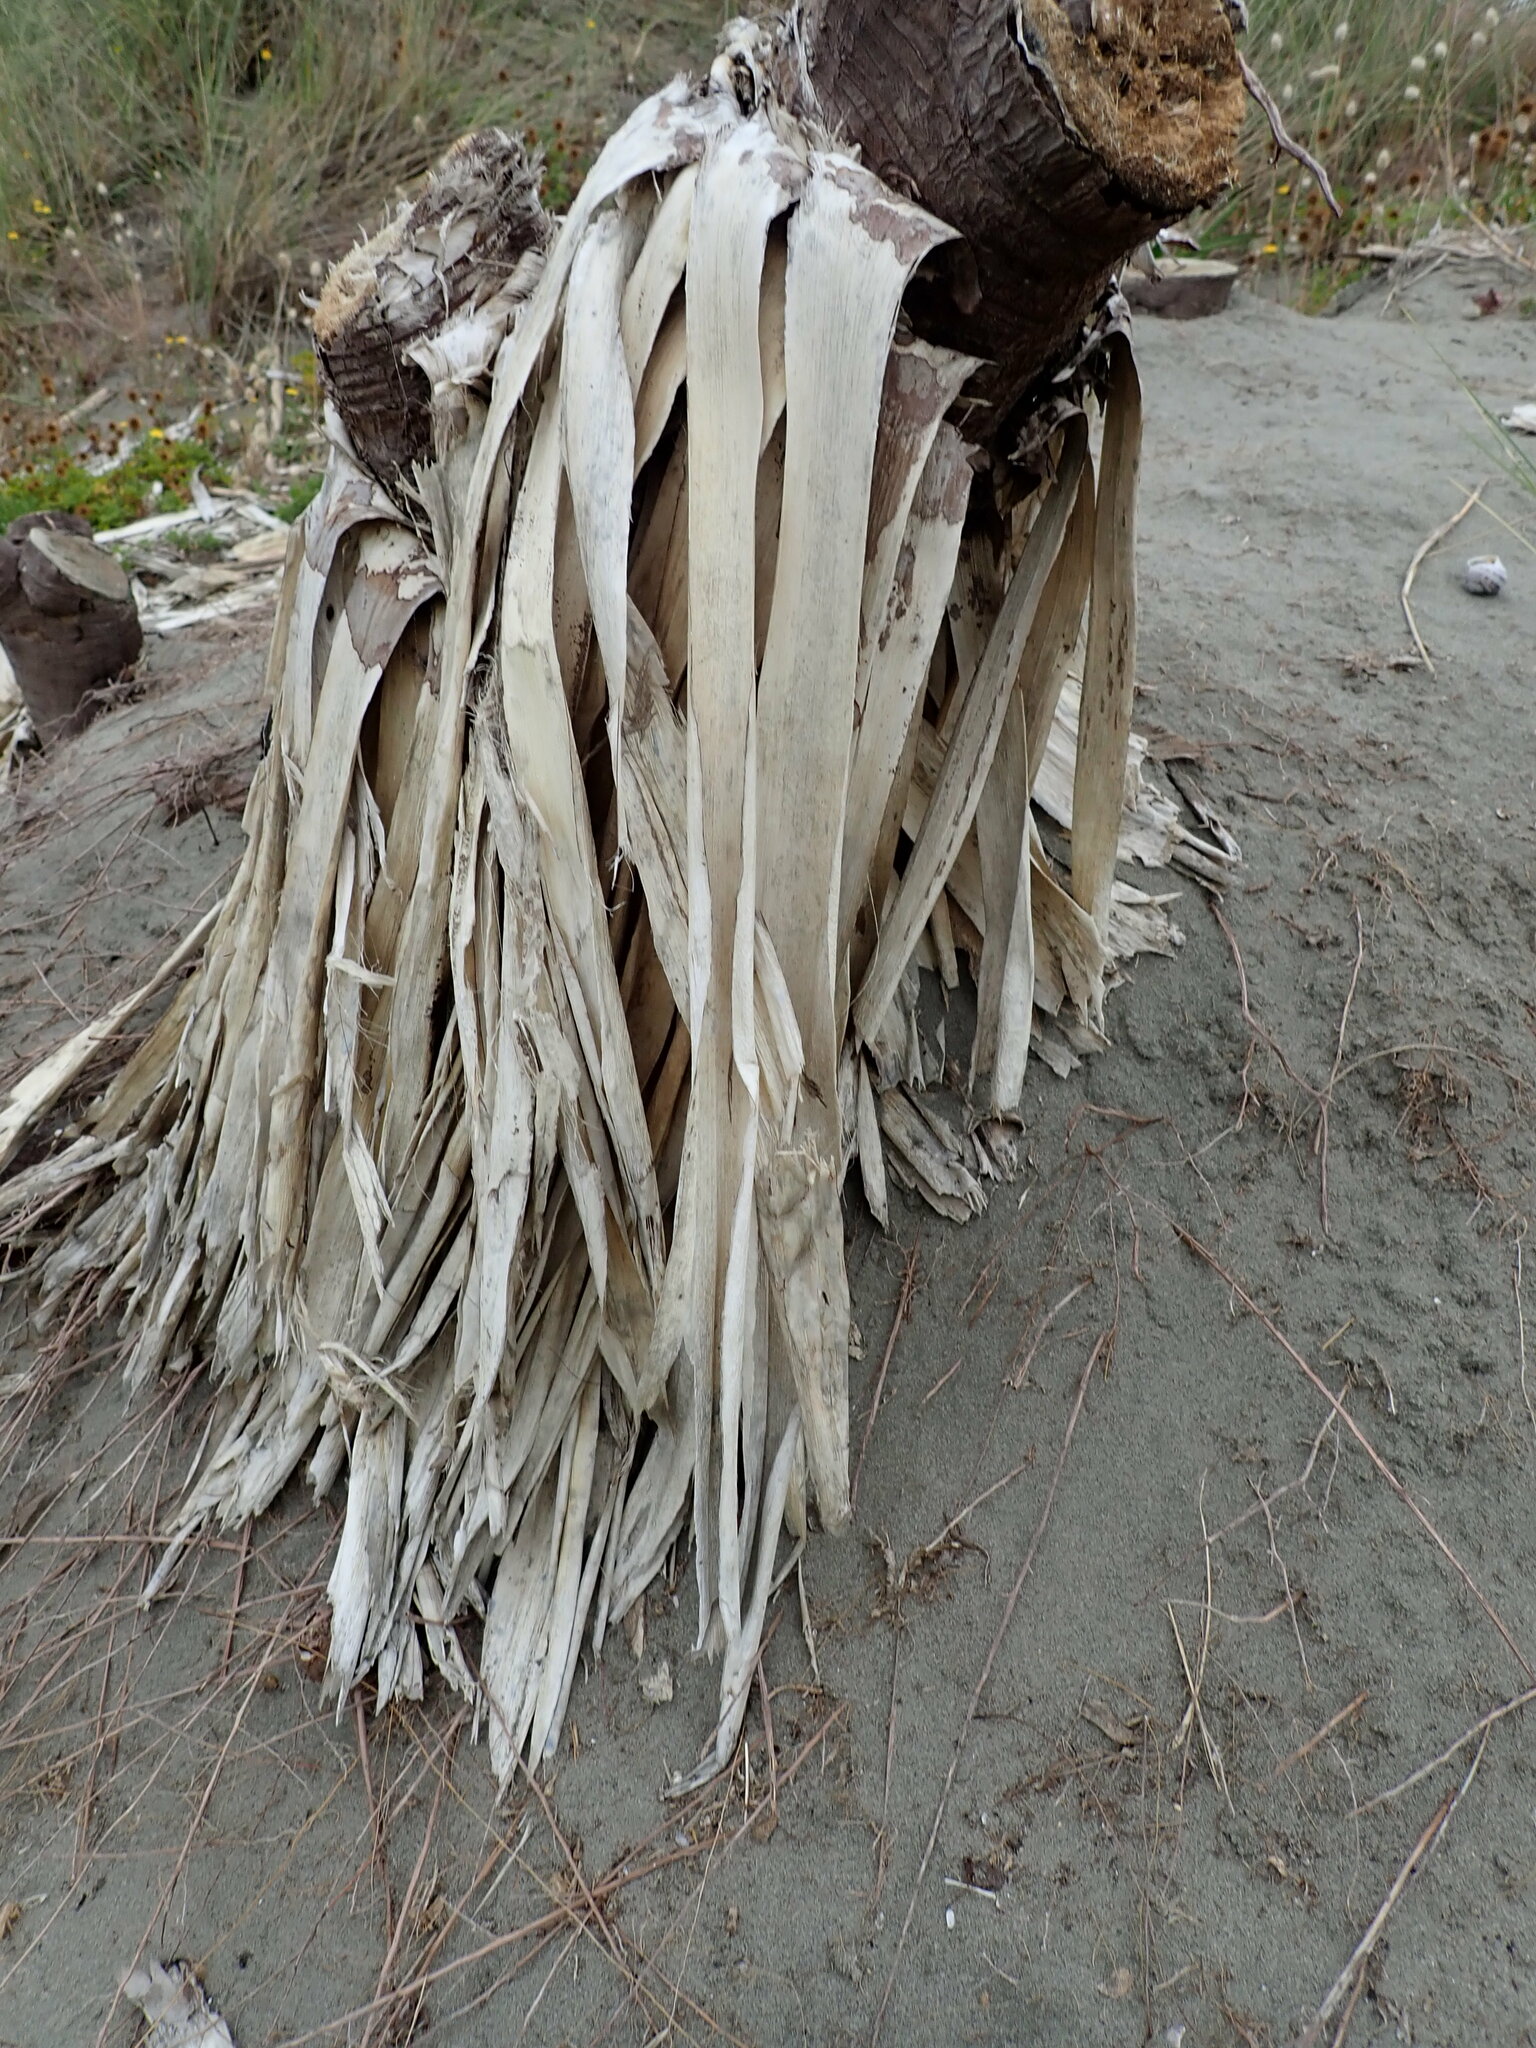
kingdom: Plantae
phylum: Tracheophyta
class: Liliopsida
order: Asparagales
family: Asparagaceae
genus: Yucca
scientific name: Yucca gloriosa
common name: Spanish-dagger
